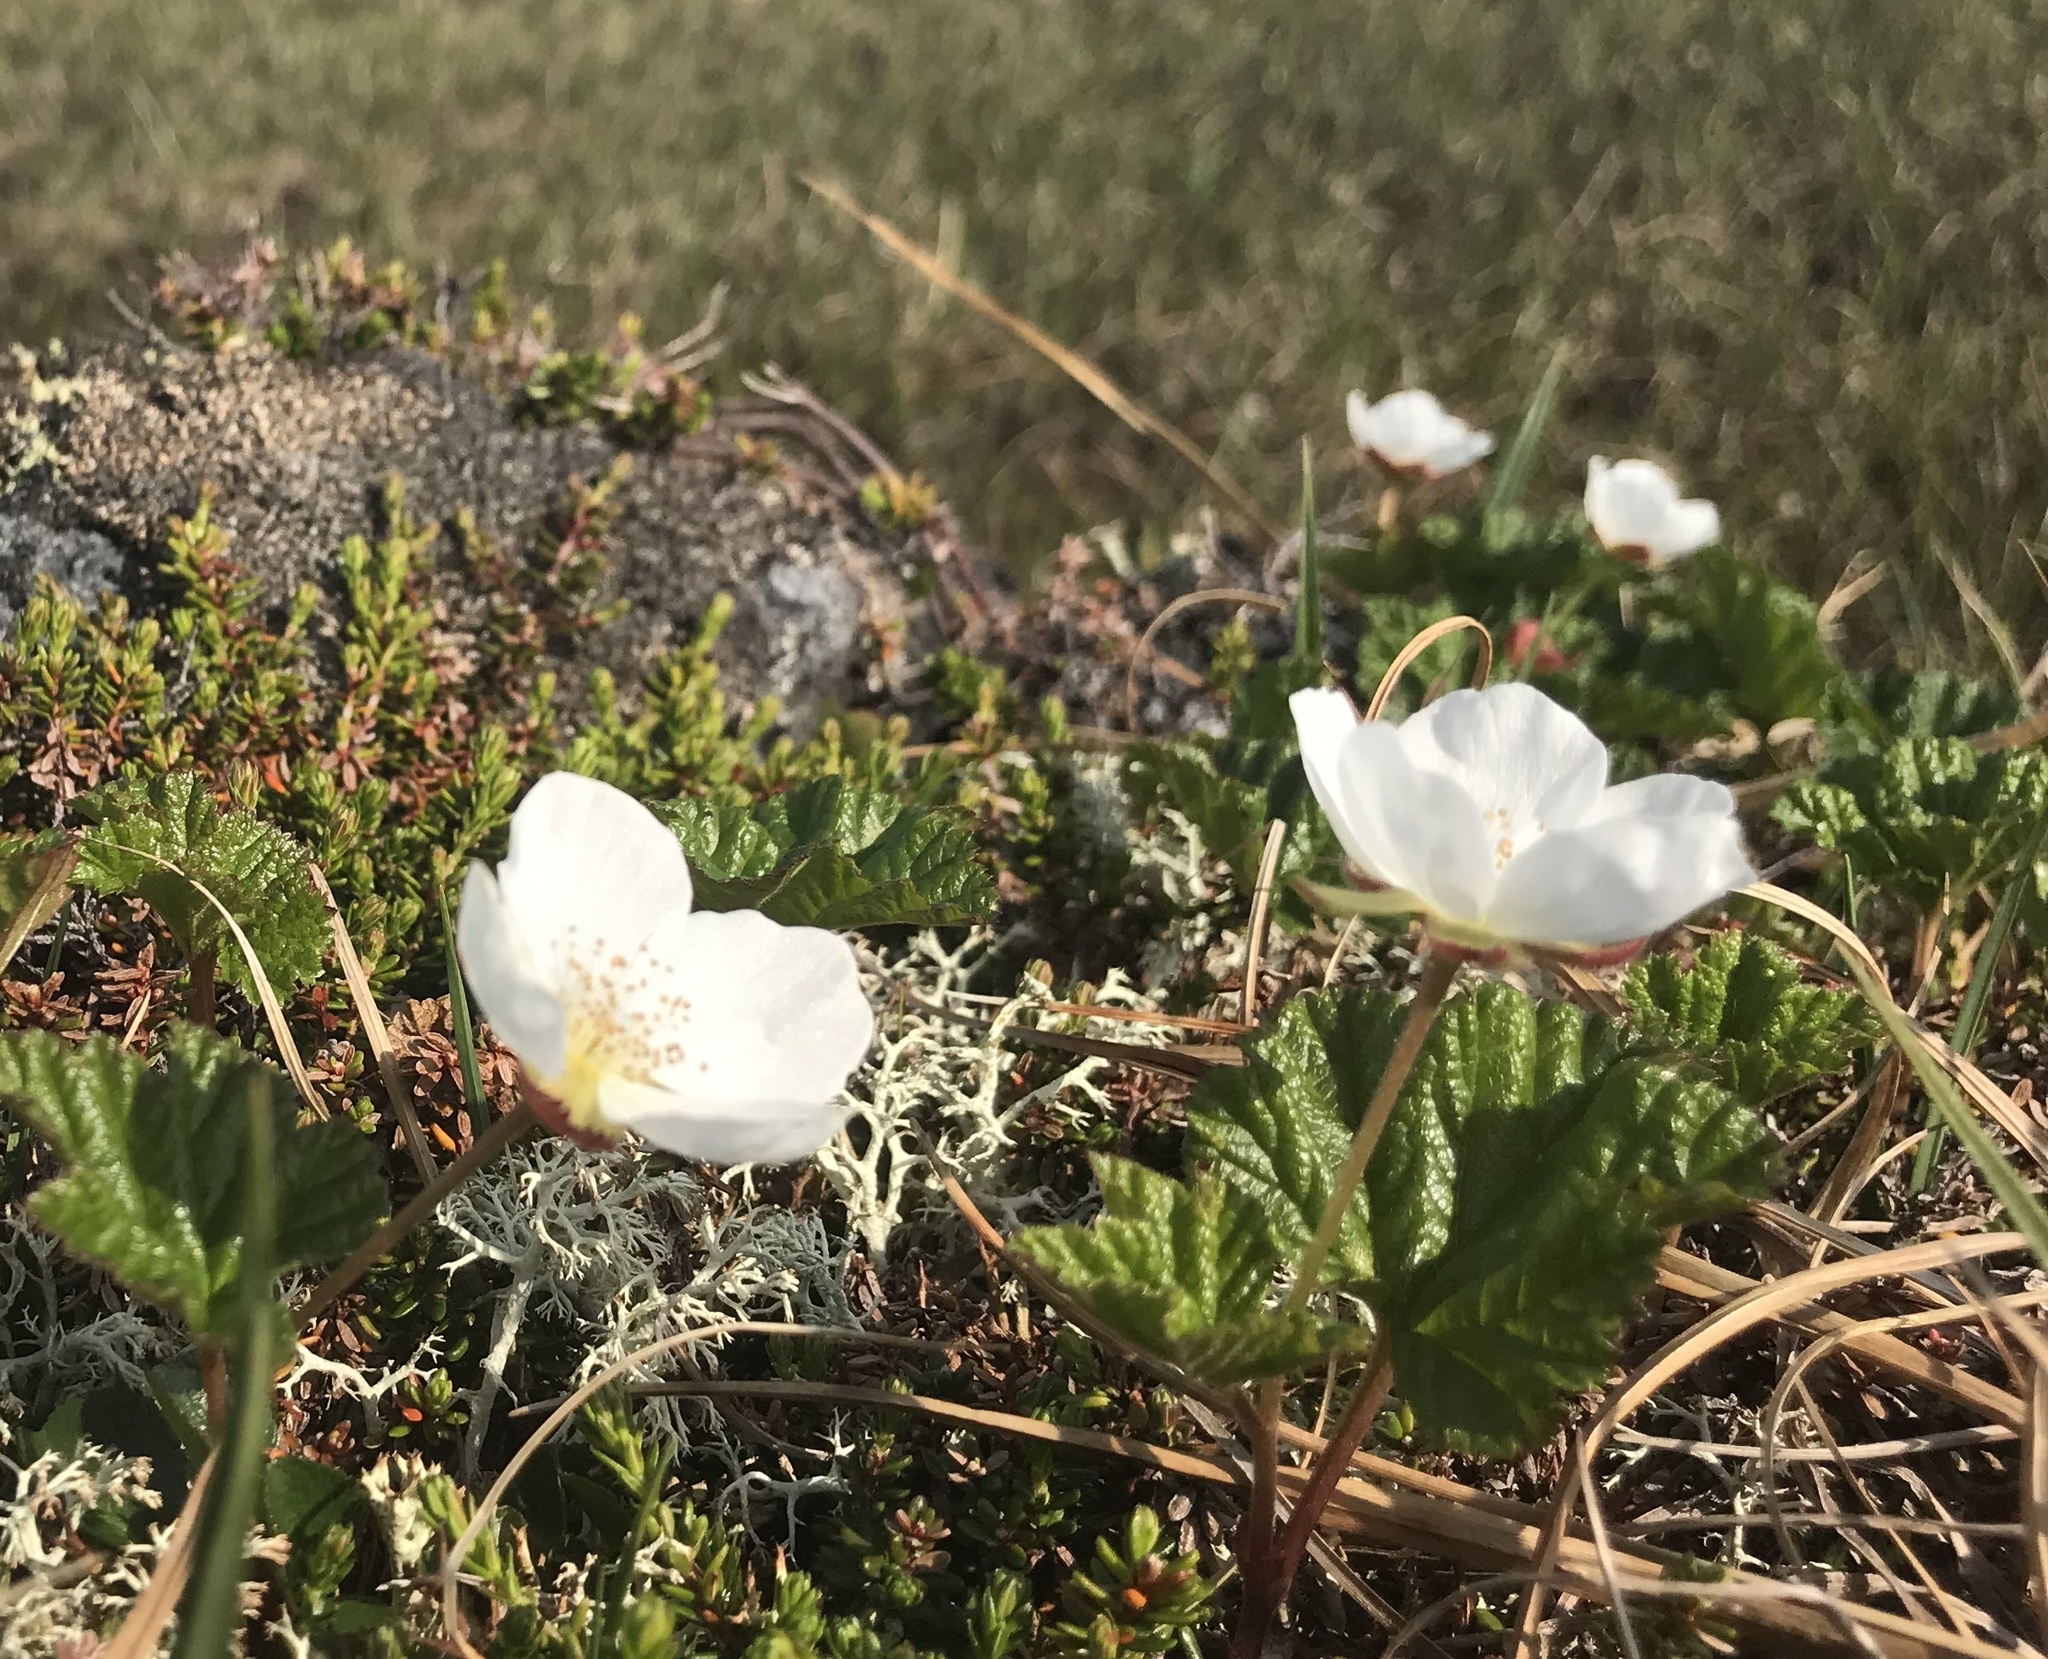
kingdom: Plantae
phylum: Tracheophyta
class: Magnoliopsida
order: Rosales
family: Rosaceae
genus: Rubus
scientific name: Rubus chamaemorus
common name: Cloudberry
